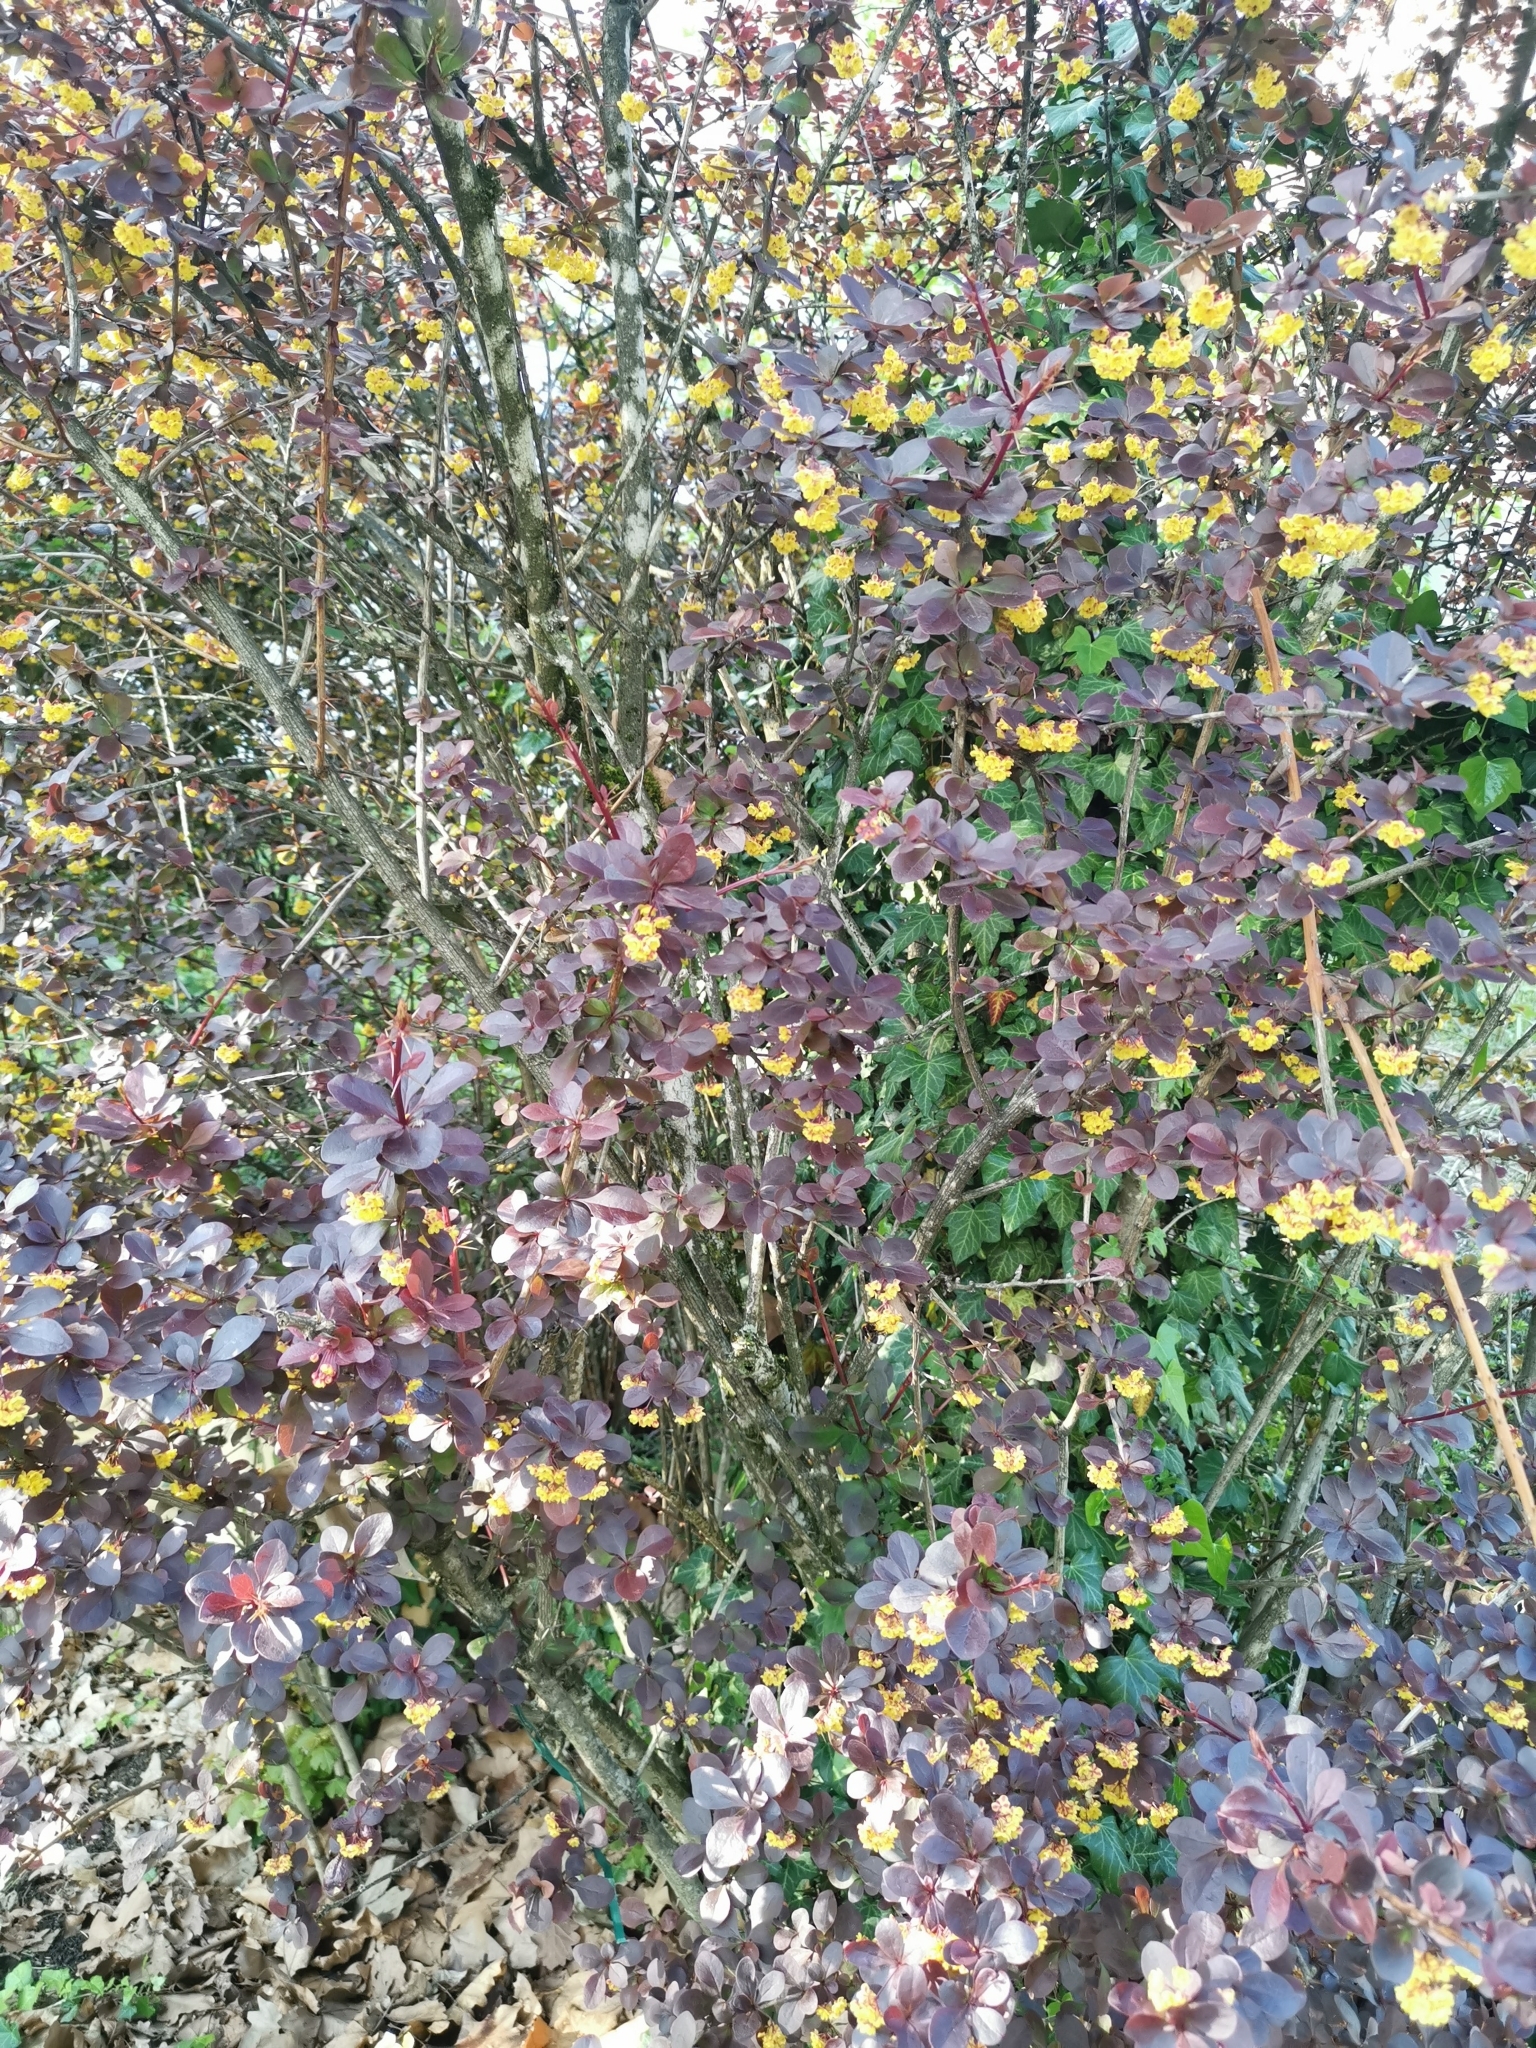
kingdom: Plantae
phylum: Tracheophyta
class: Magnoliopsida
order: Ranunculales
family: Berberidaceae
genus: Berberis
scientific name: Berberis thunbergii
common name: Japanese barberry
